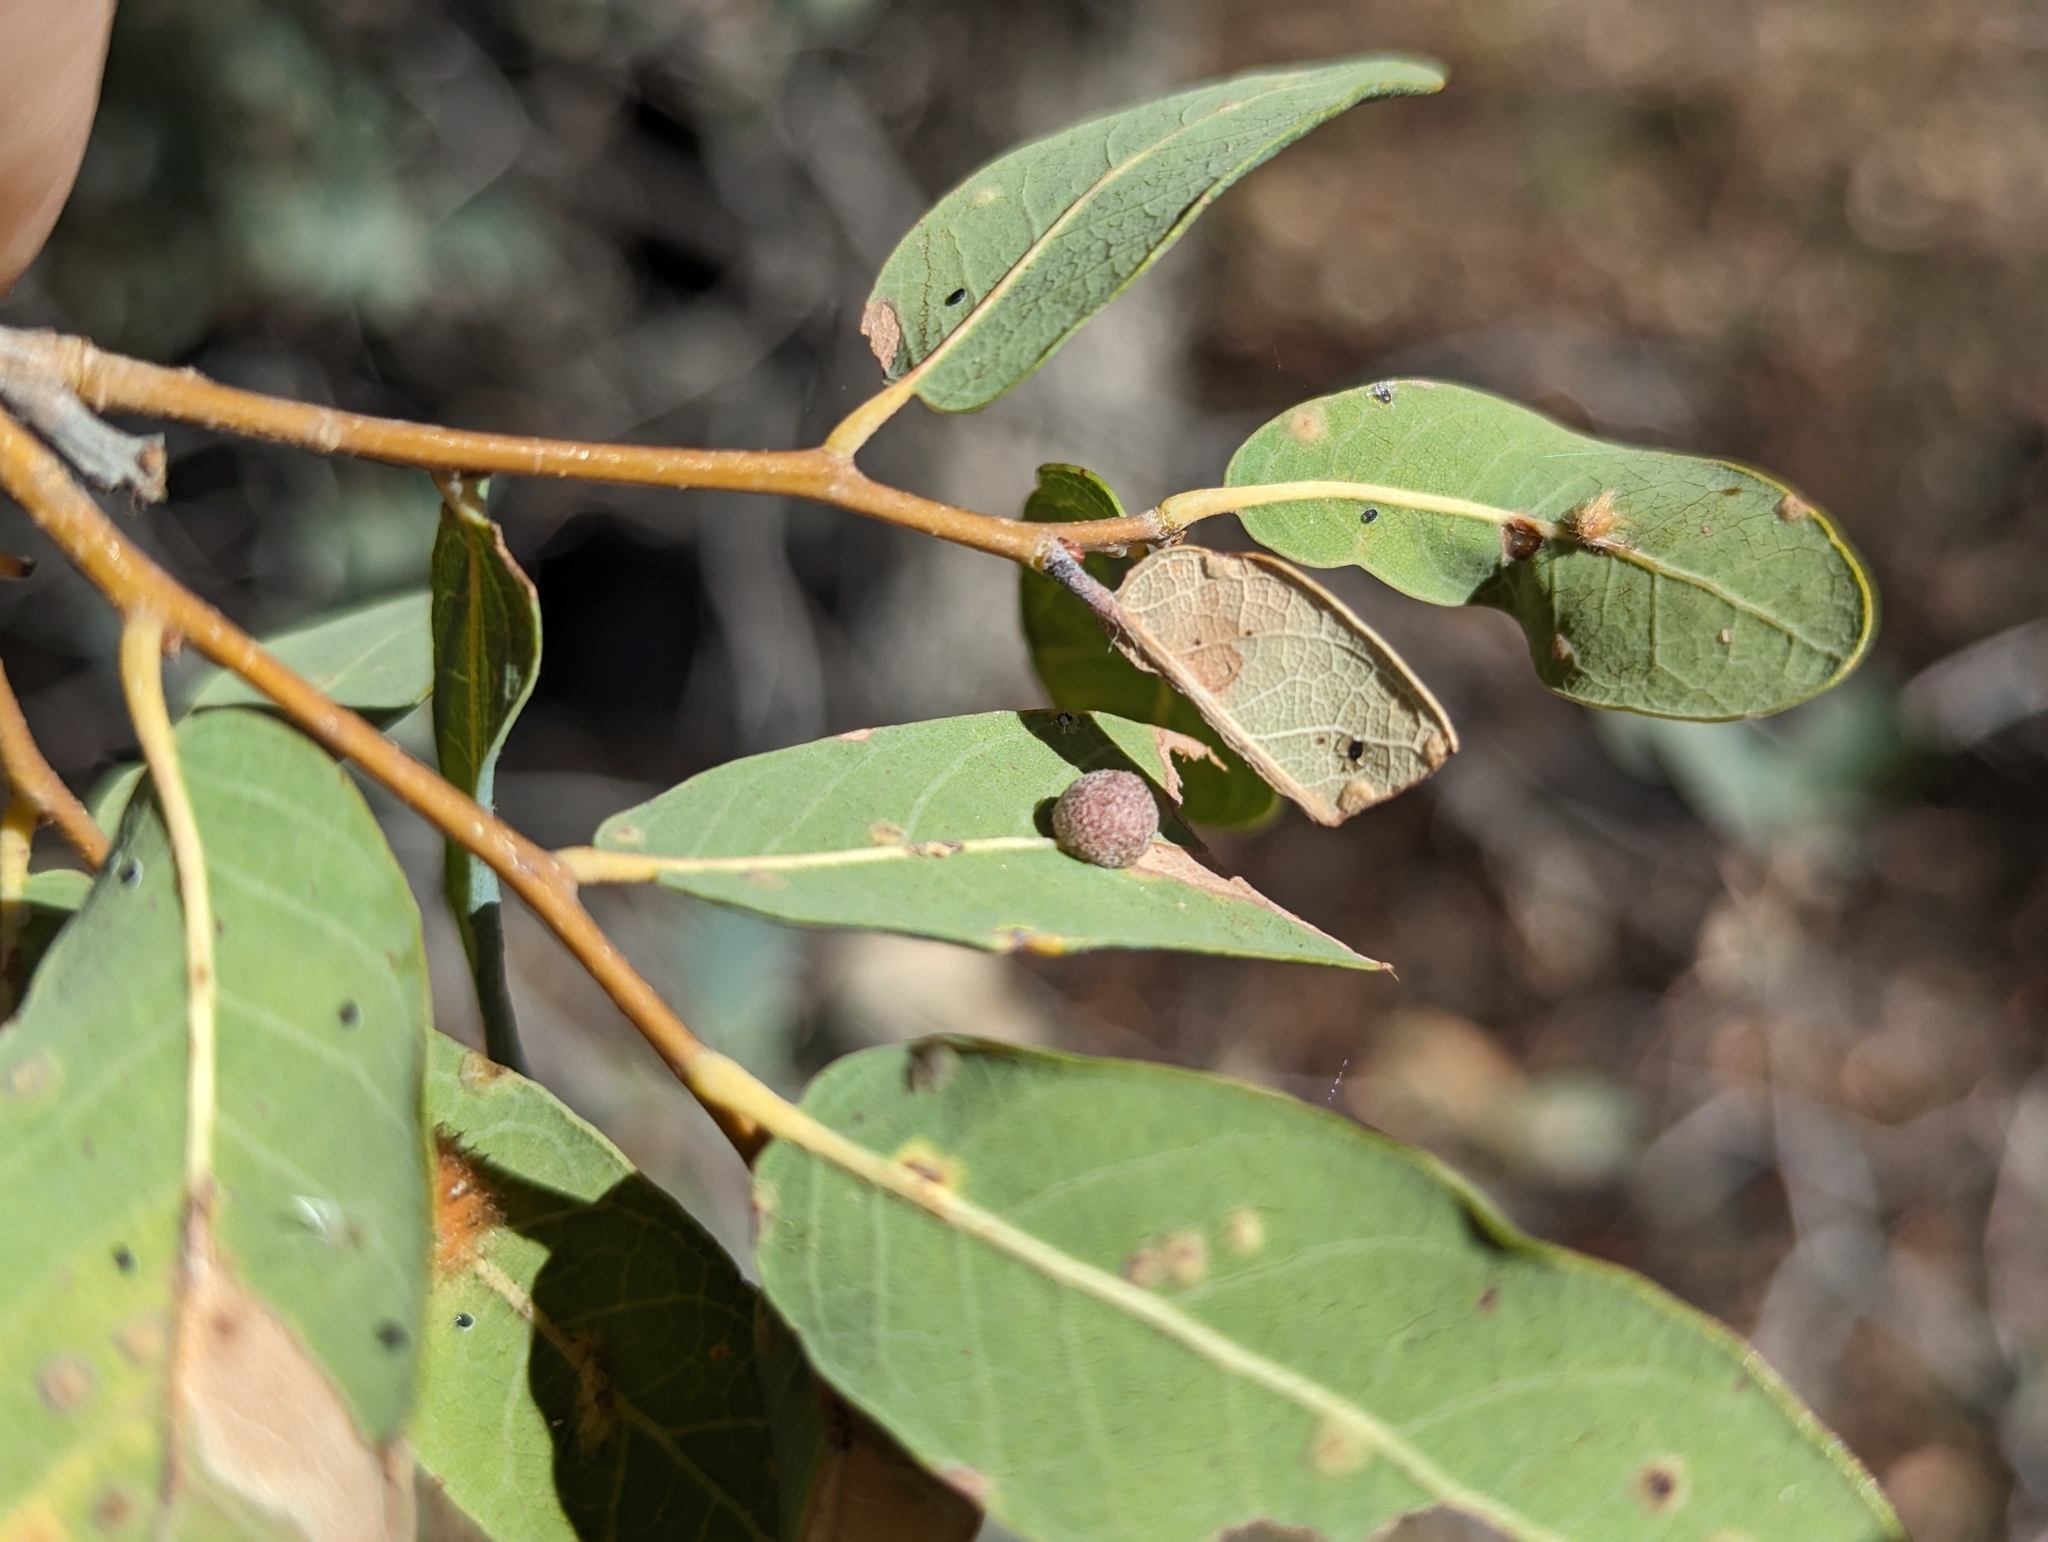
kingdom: Plantae
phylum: Tracheophyta
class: Magnoliopsida
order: Fagales
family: Fagaceae
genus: Quercus
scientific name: Quercus oblongifolia
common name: Mexican blue oak
